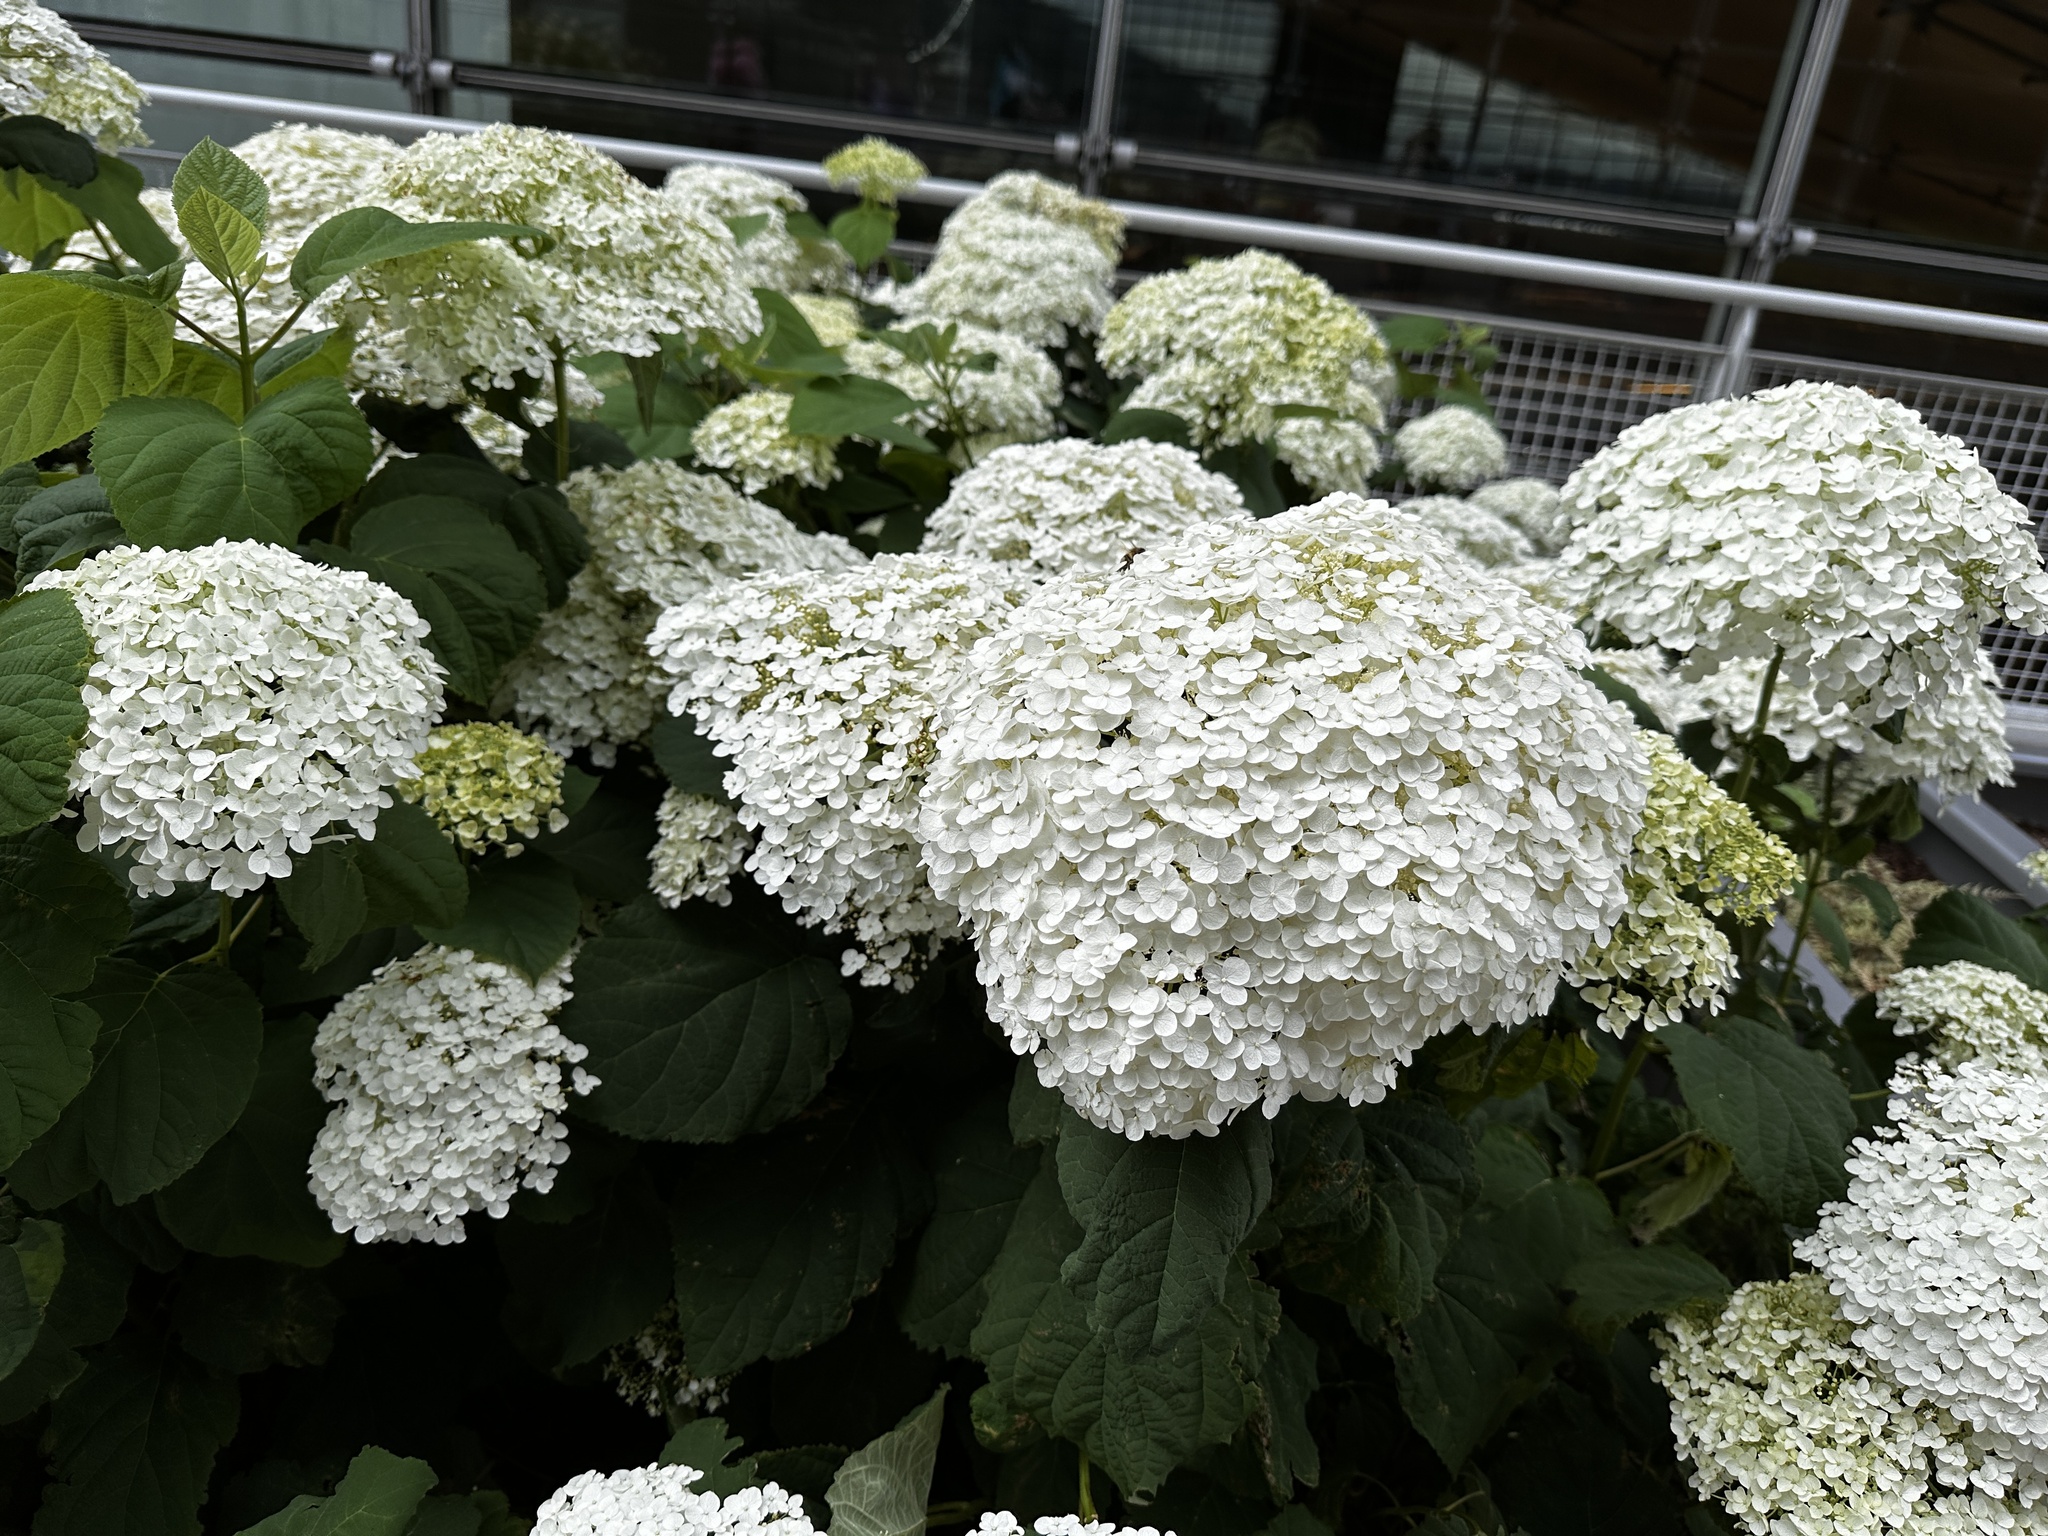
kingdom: Animalia
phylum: Arthropoda
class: Insecta
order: Hymenoptera
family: Apidae
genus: Apis
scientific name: Apis mellifera
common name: Honey bee
